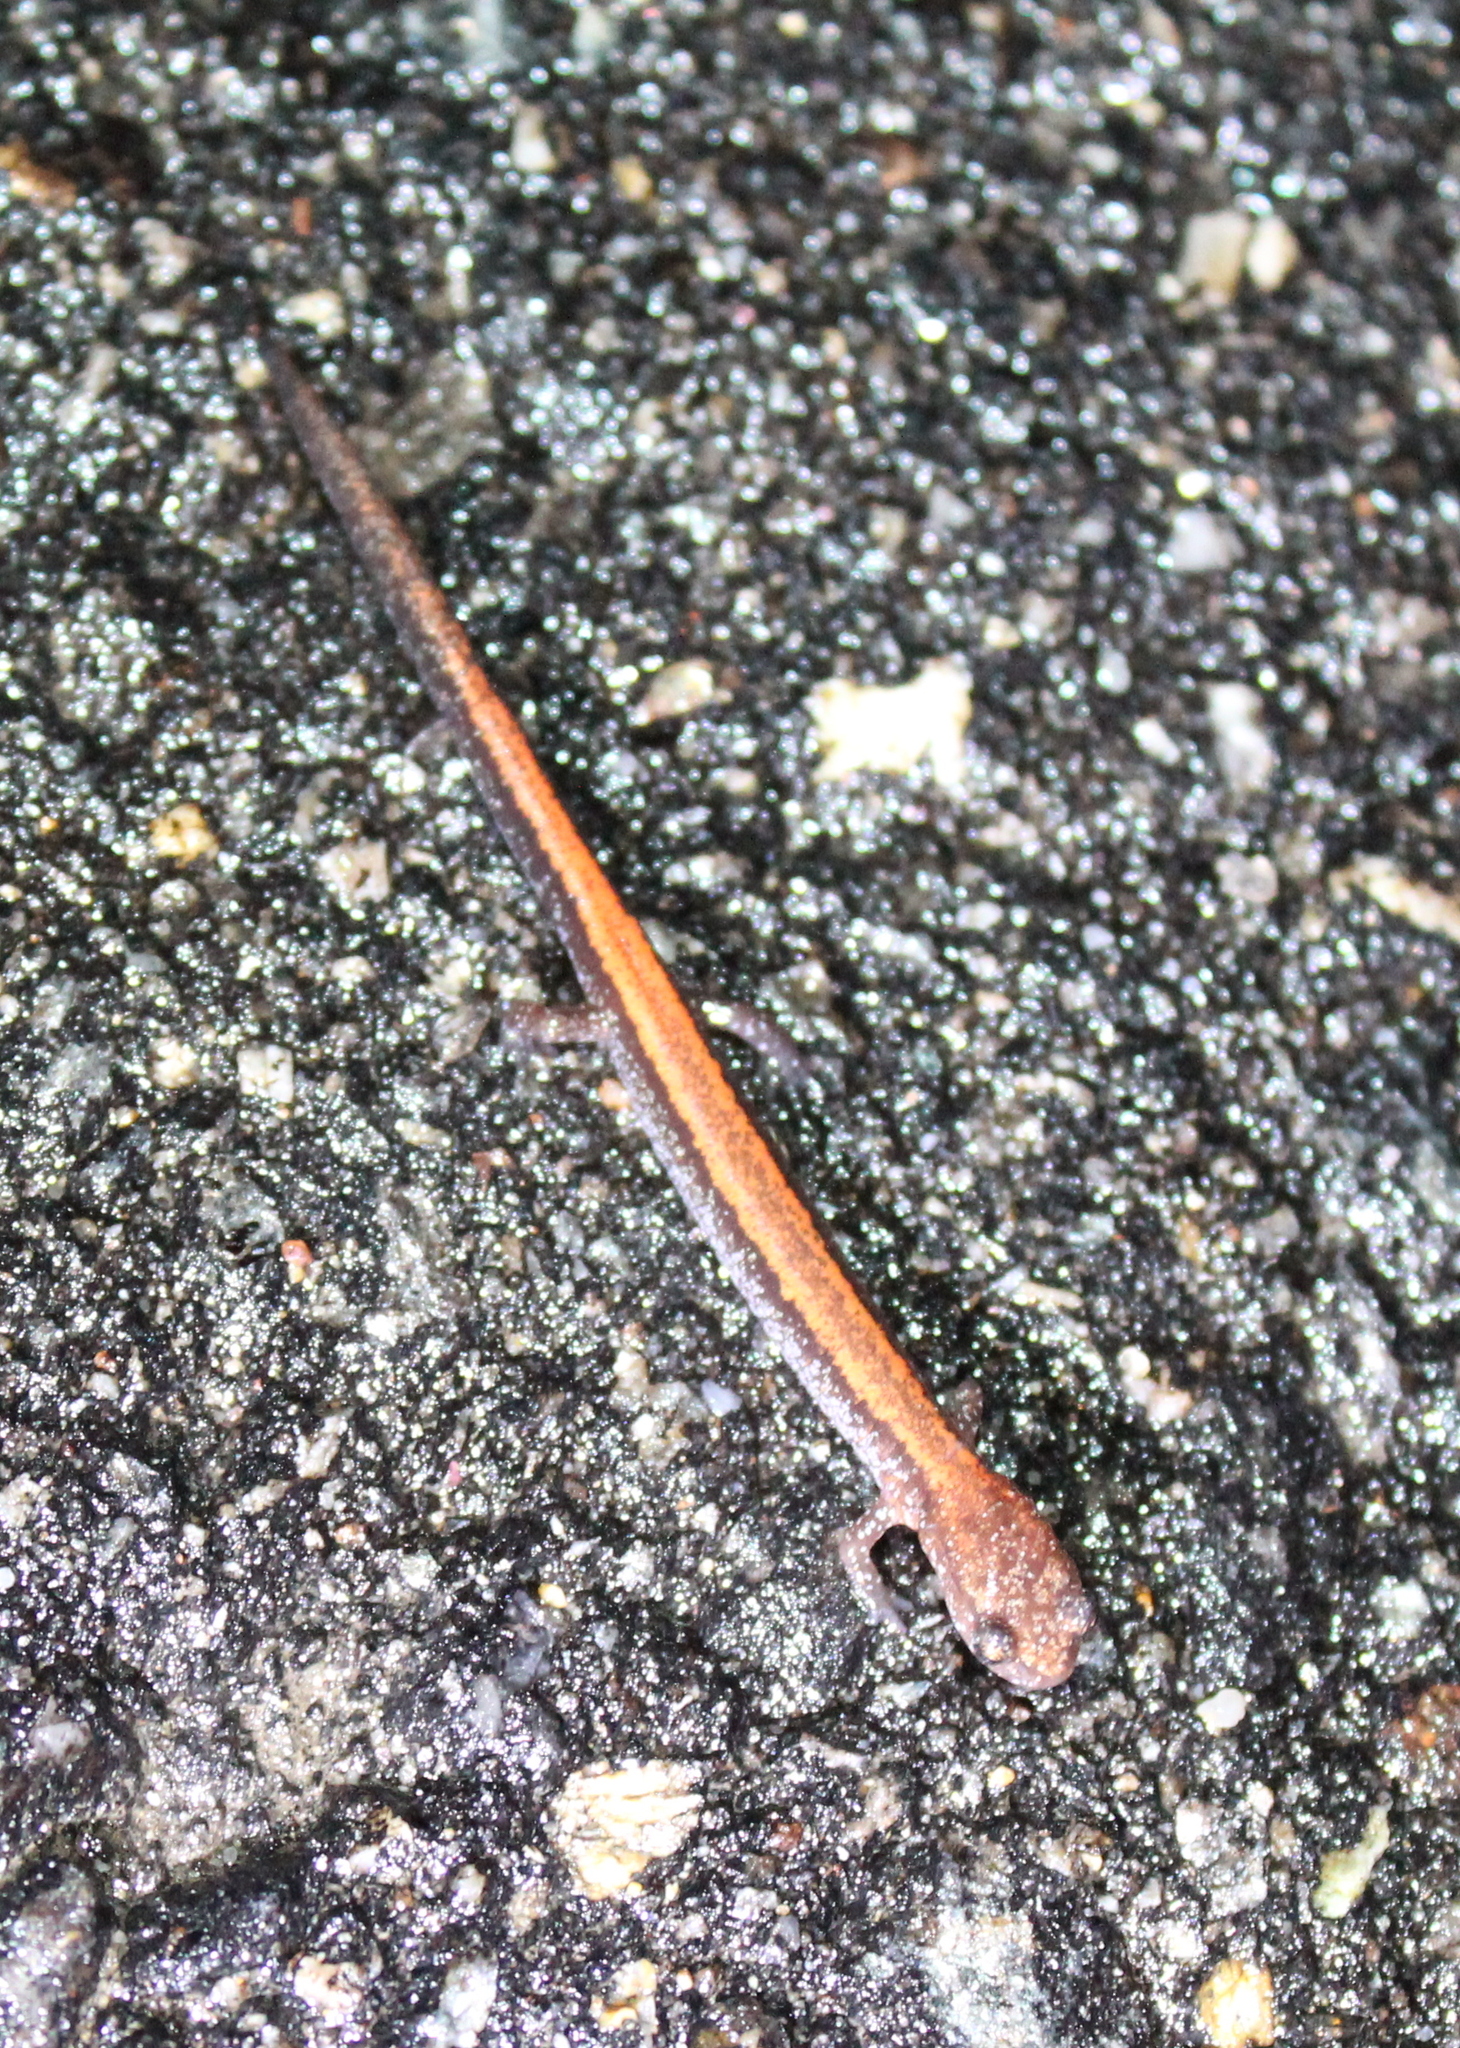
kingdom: Animalia
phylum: Chordata
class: Amphibia
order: Caudata
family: Plethodontidae
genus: Plethodon
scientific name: Plethodon cinereus
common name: Redback salamander
